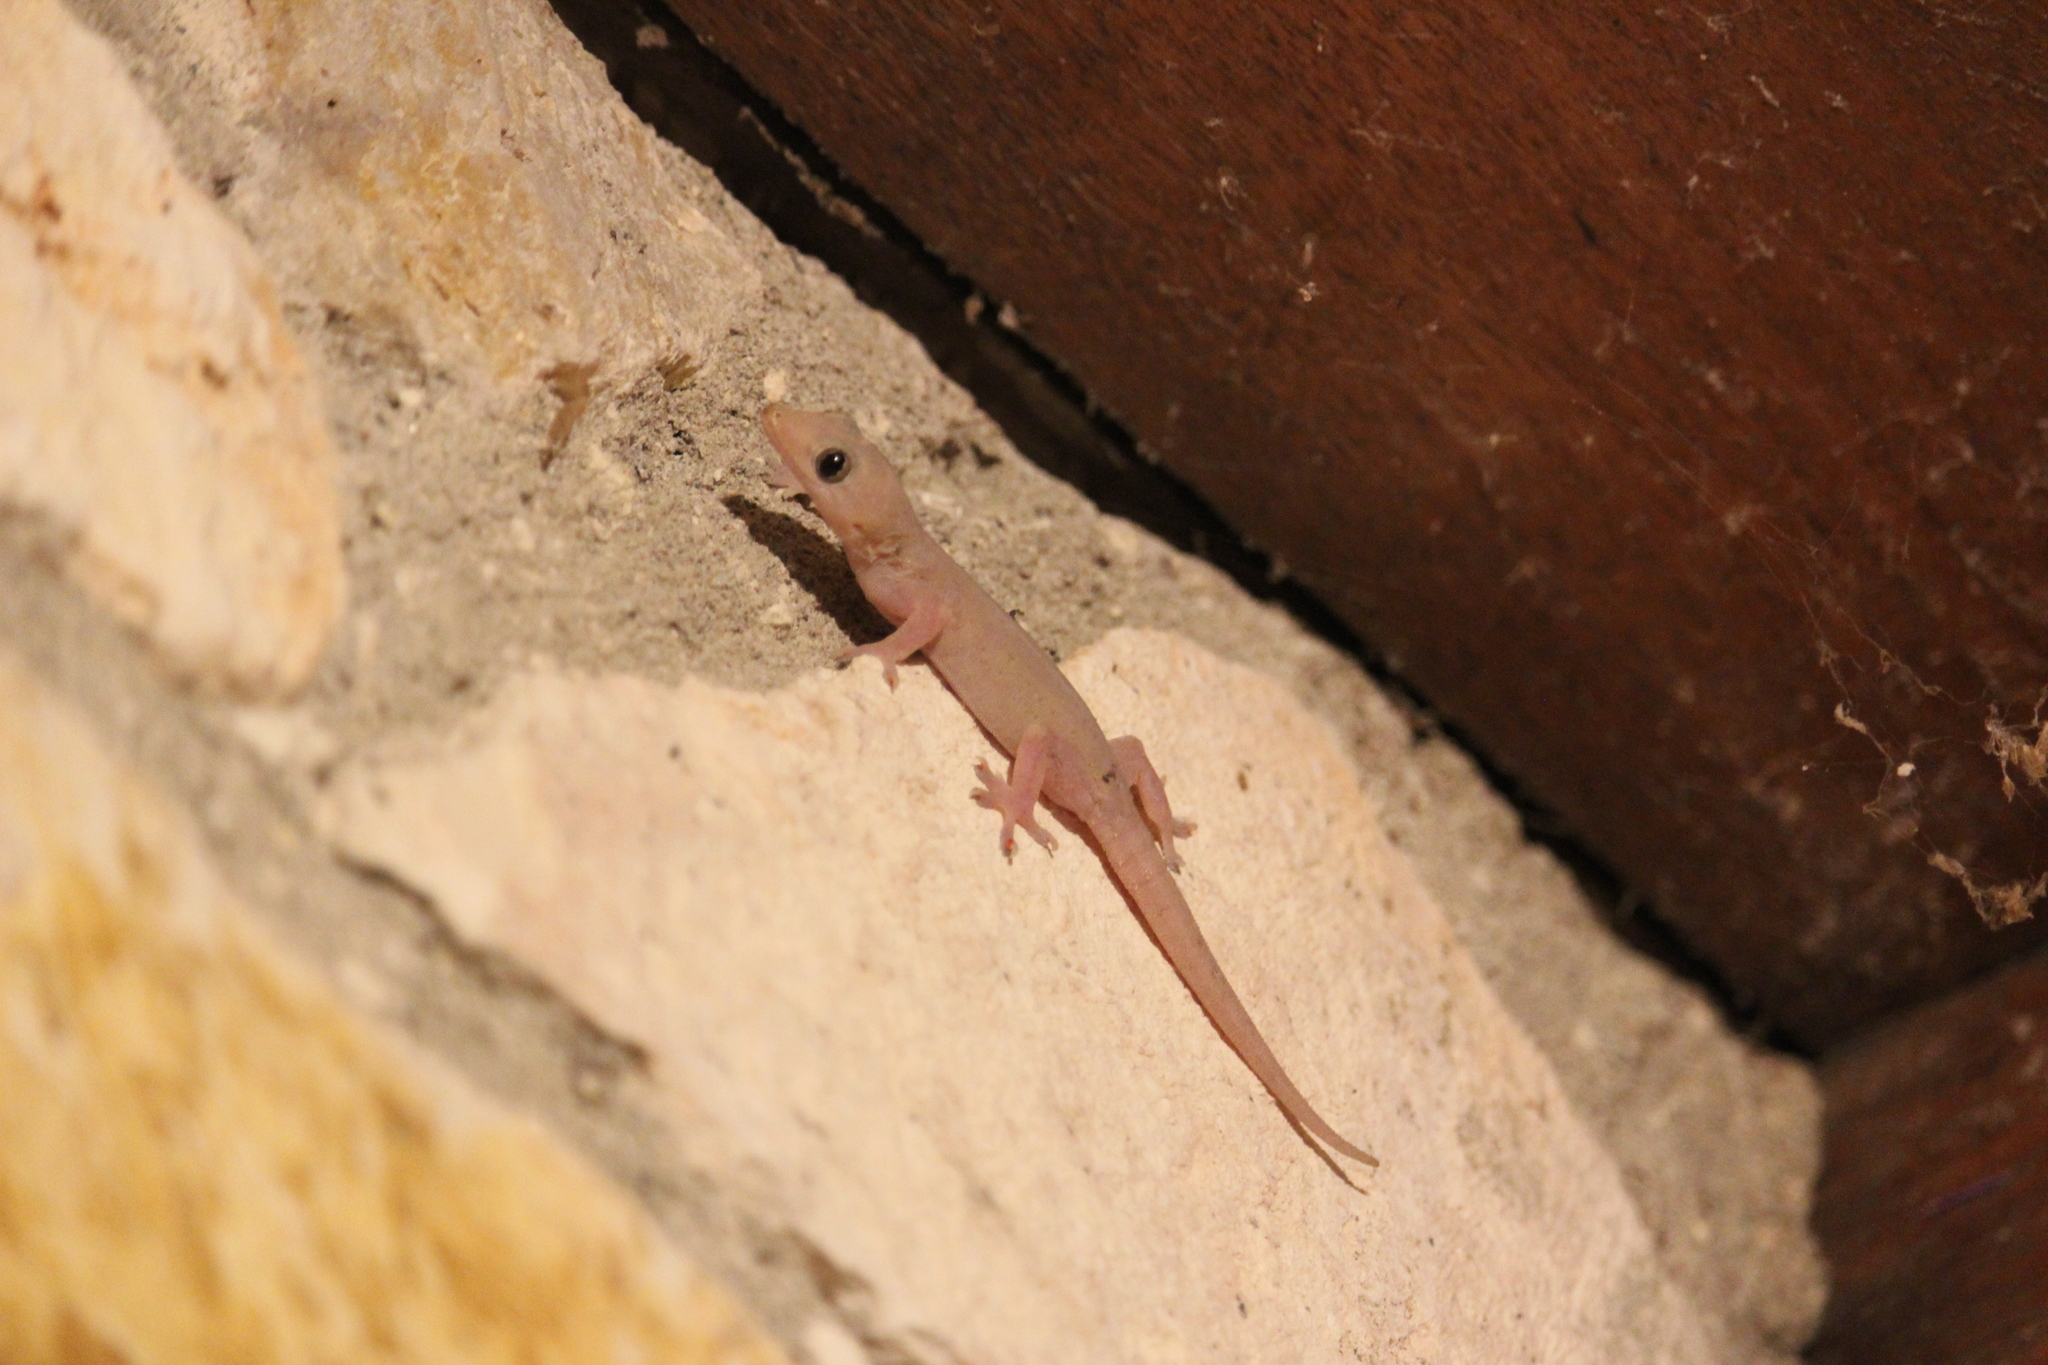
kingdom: Animalia
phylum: Chordata
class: Squamata
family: Gekkonidae
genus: Hemidactylus
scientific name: Hemidactylus frenatus
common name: Common house gecko
